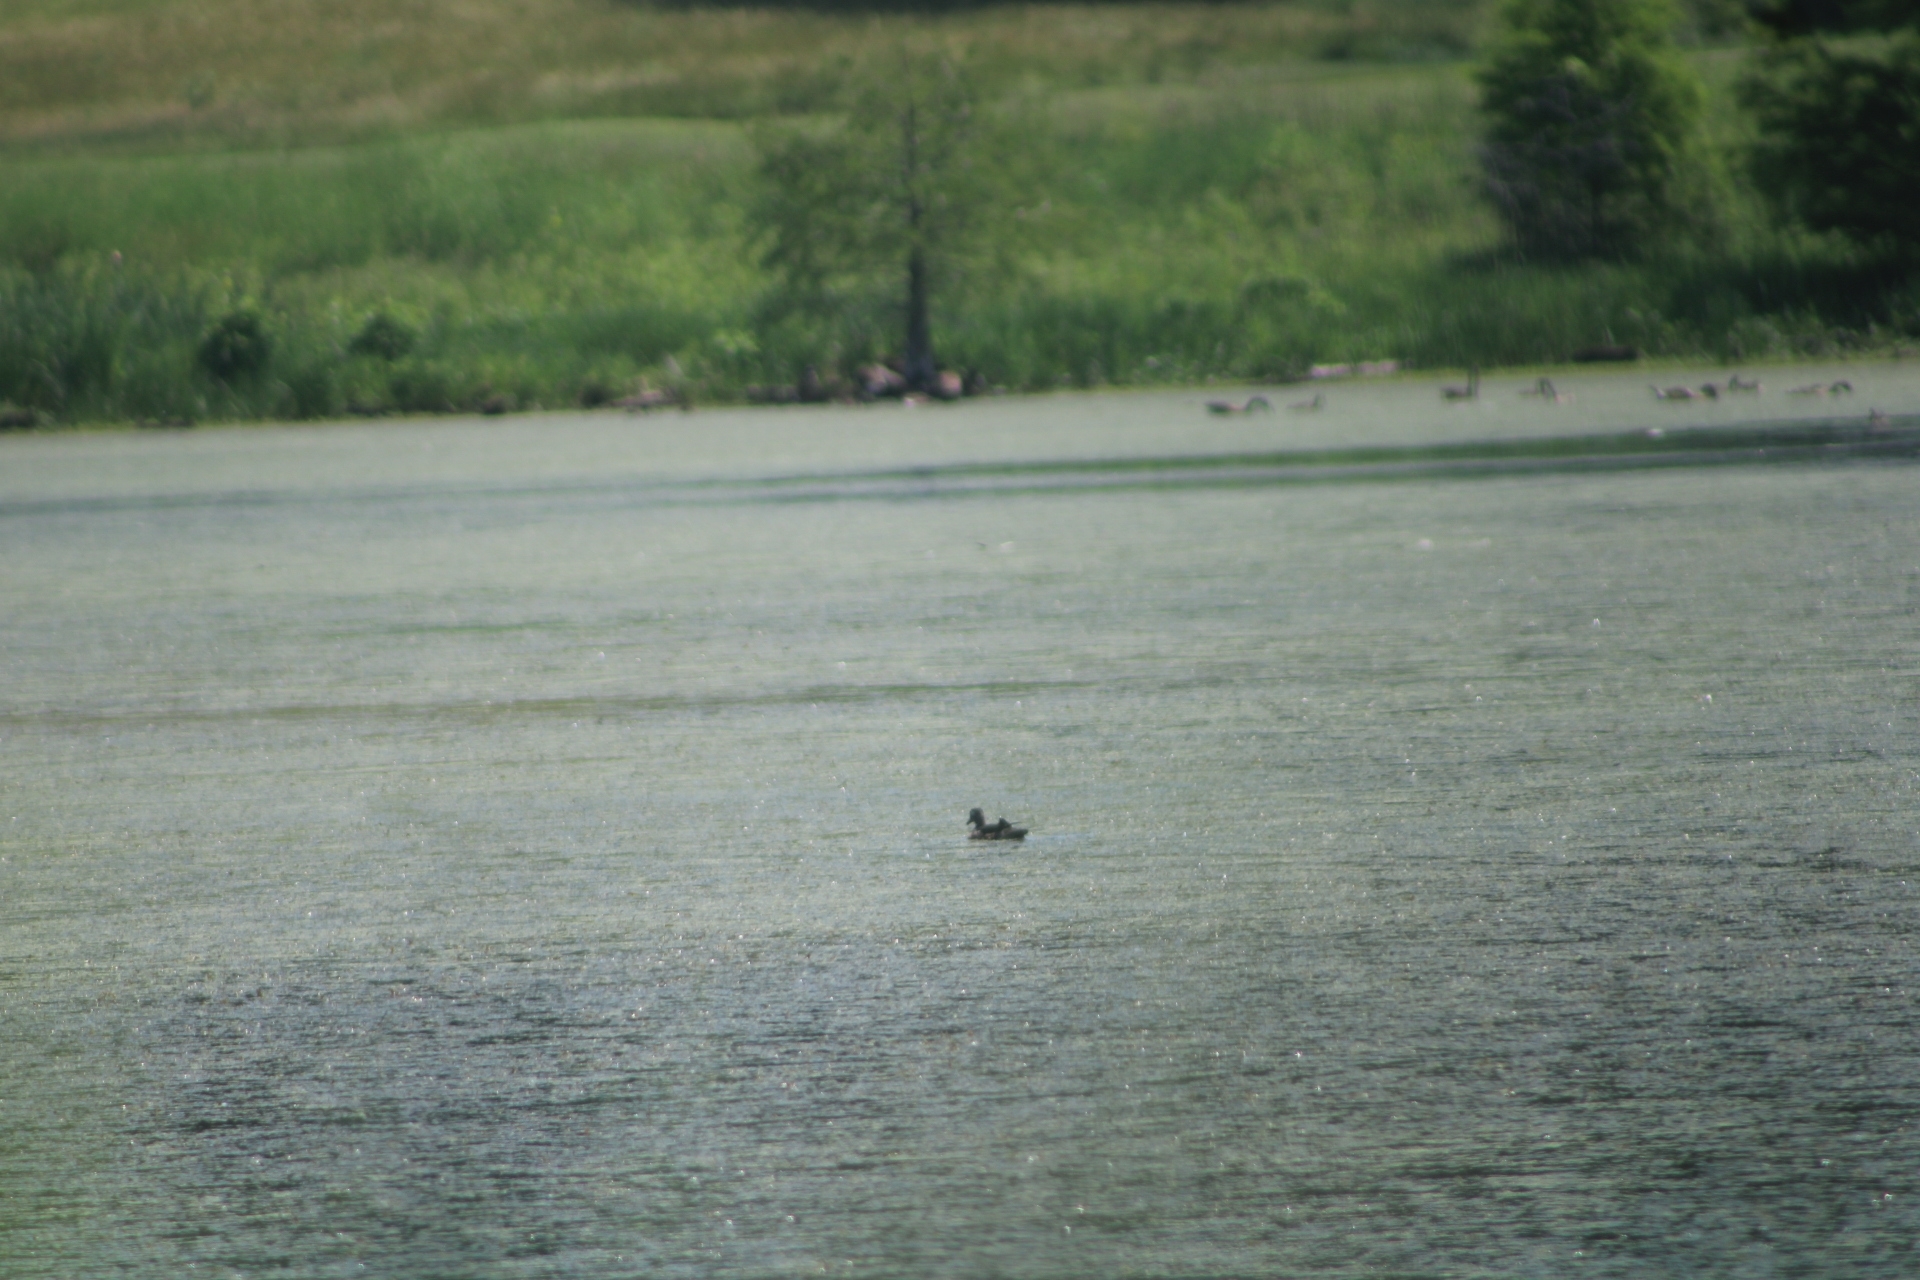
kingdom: Animalia
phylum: Chordata
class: Aves
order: Anseriformes
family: Anatidae
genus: Aix
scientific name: Aix sponsa
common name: Wood duck
